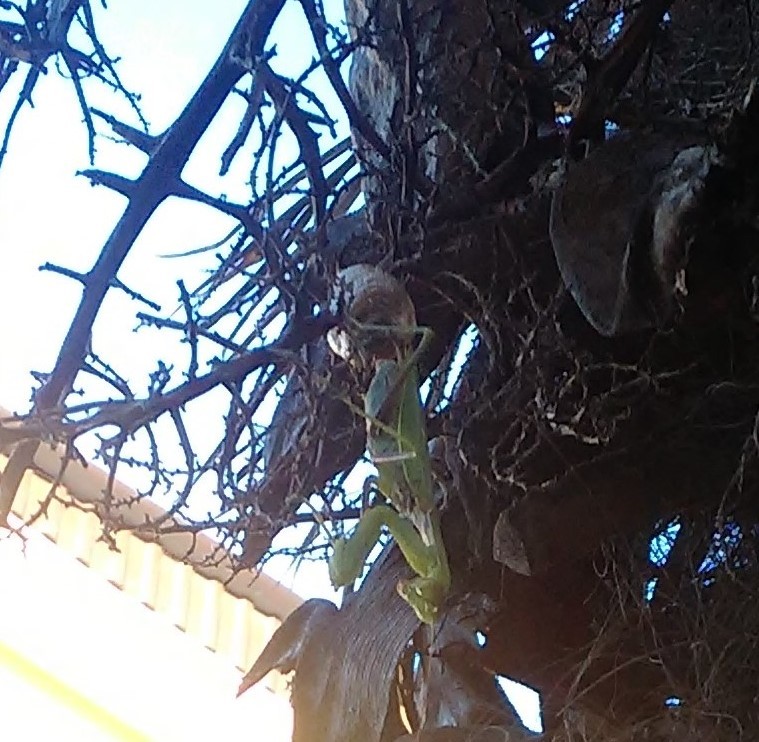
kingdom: Animalia
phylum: Arthropoda
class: Insecta
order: Mantodea
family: Mantidae
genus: Hierodula
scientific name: Hierodula transcaucasica
